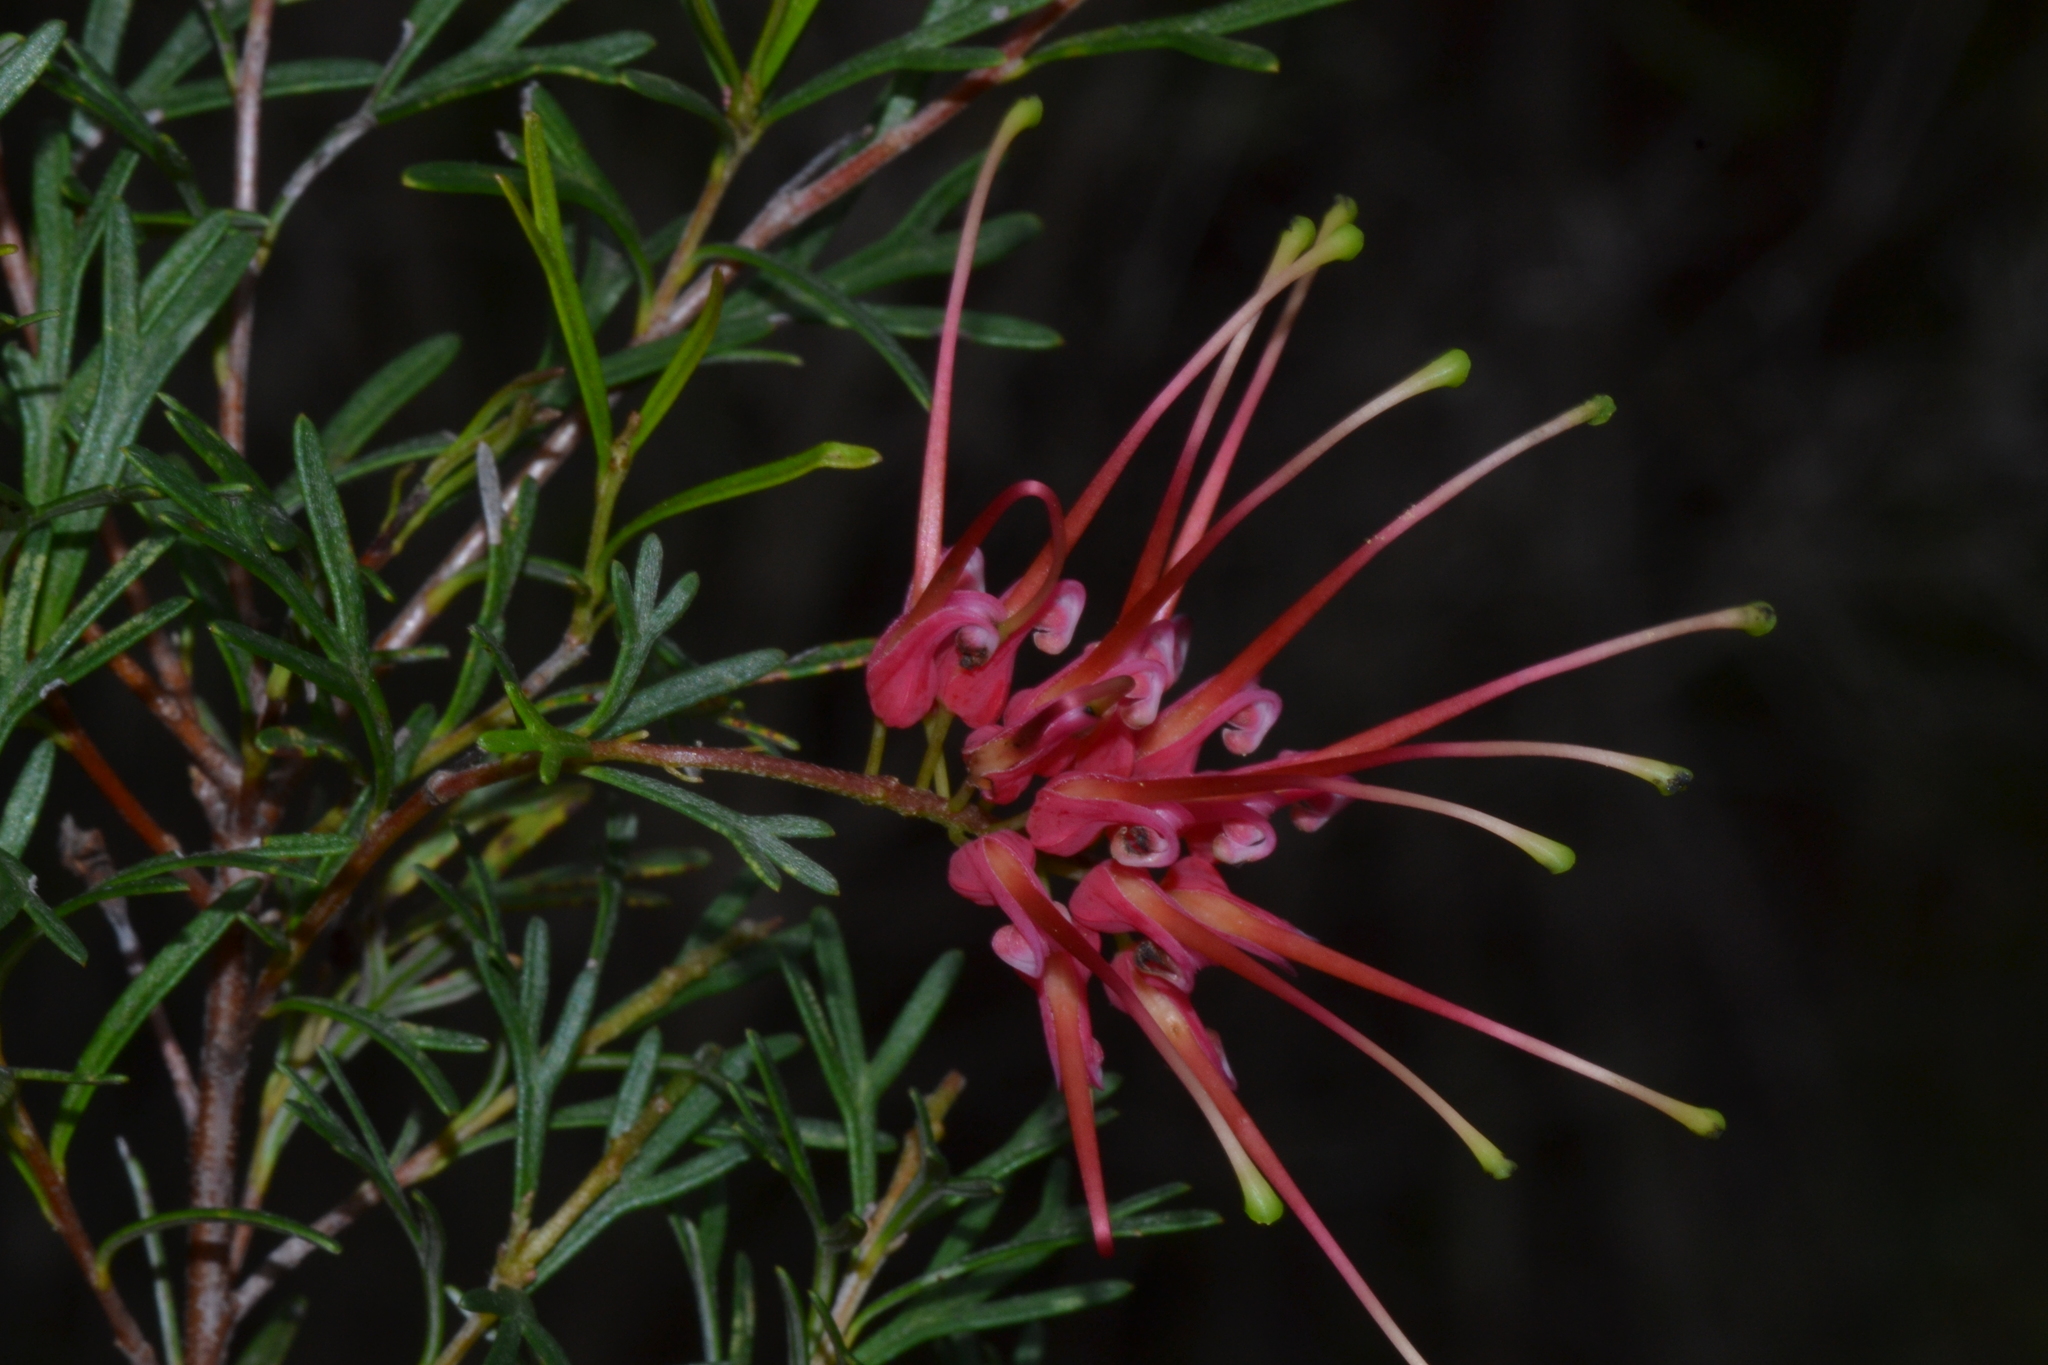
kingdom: Plantae
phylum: Tracheophyta
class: Magnoliopsida
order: Proteales
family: Proteaceae
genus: Grevillea
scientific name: Grevillea thelemanniana
